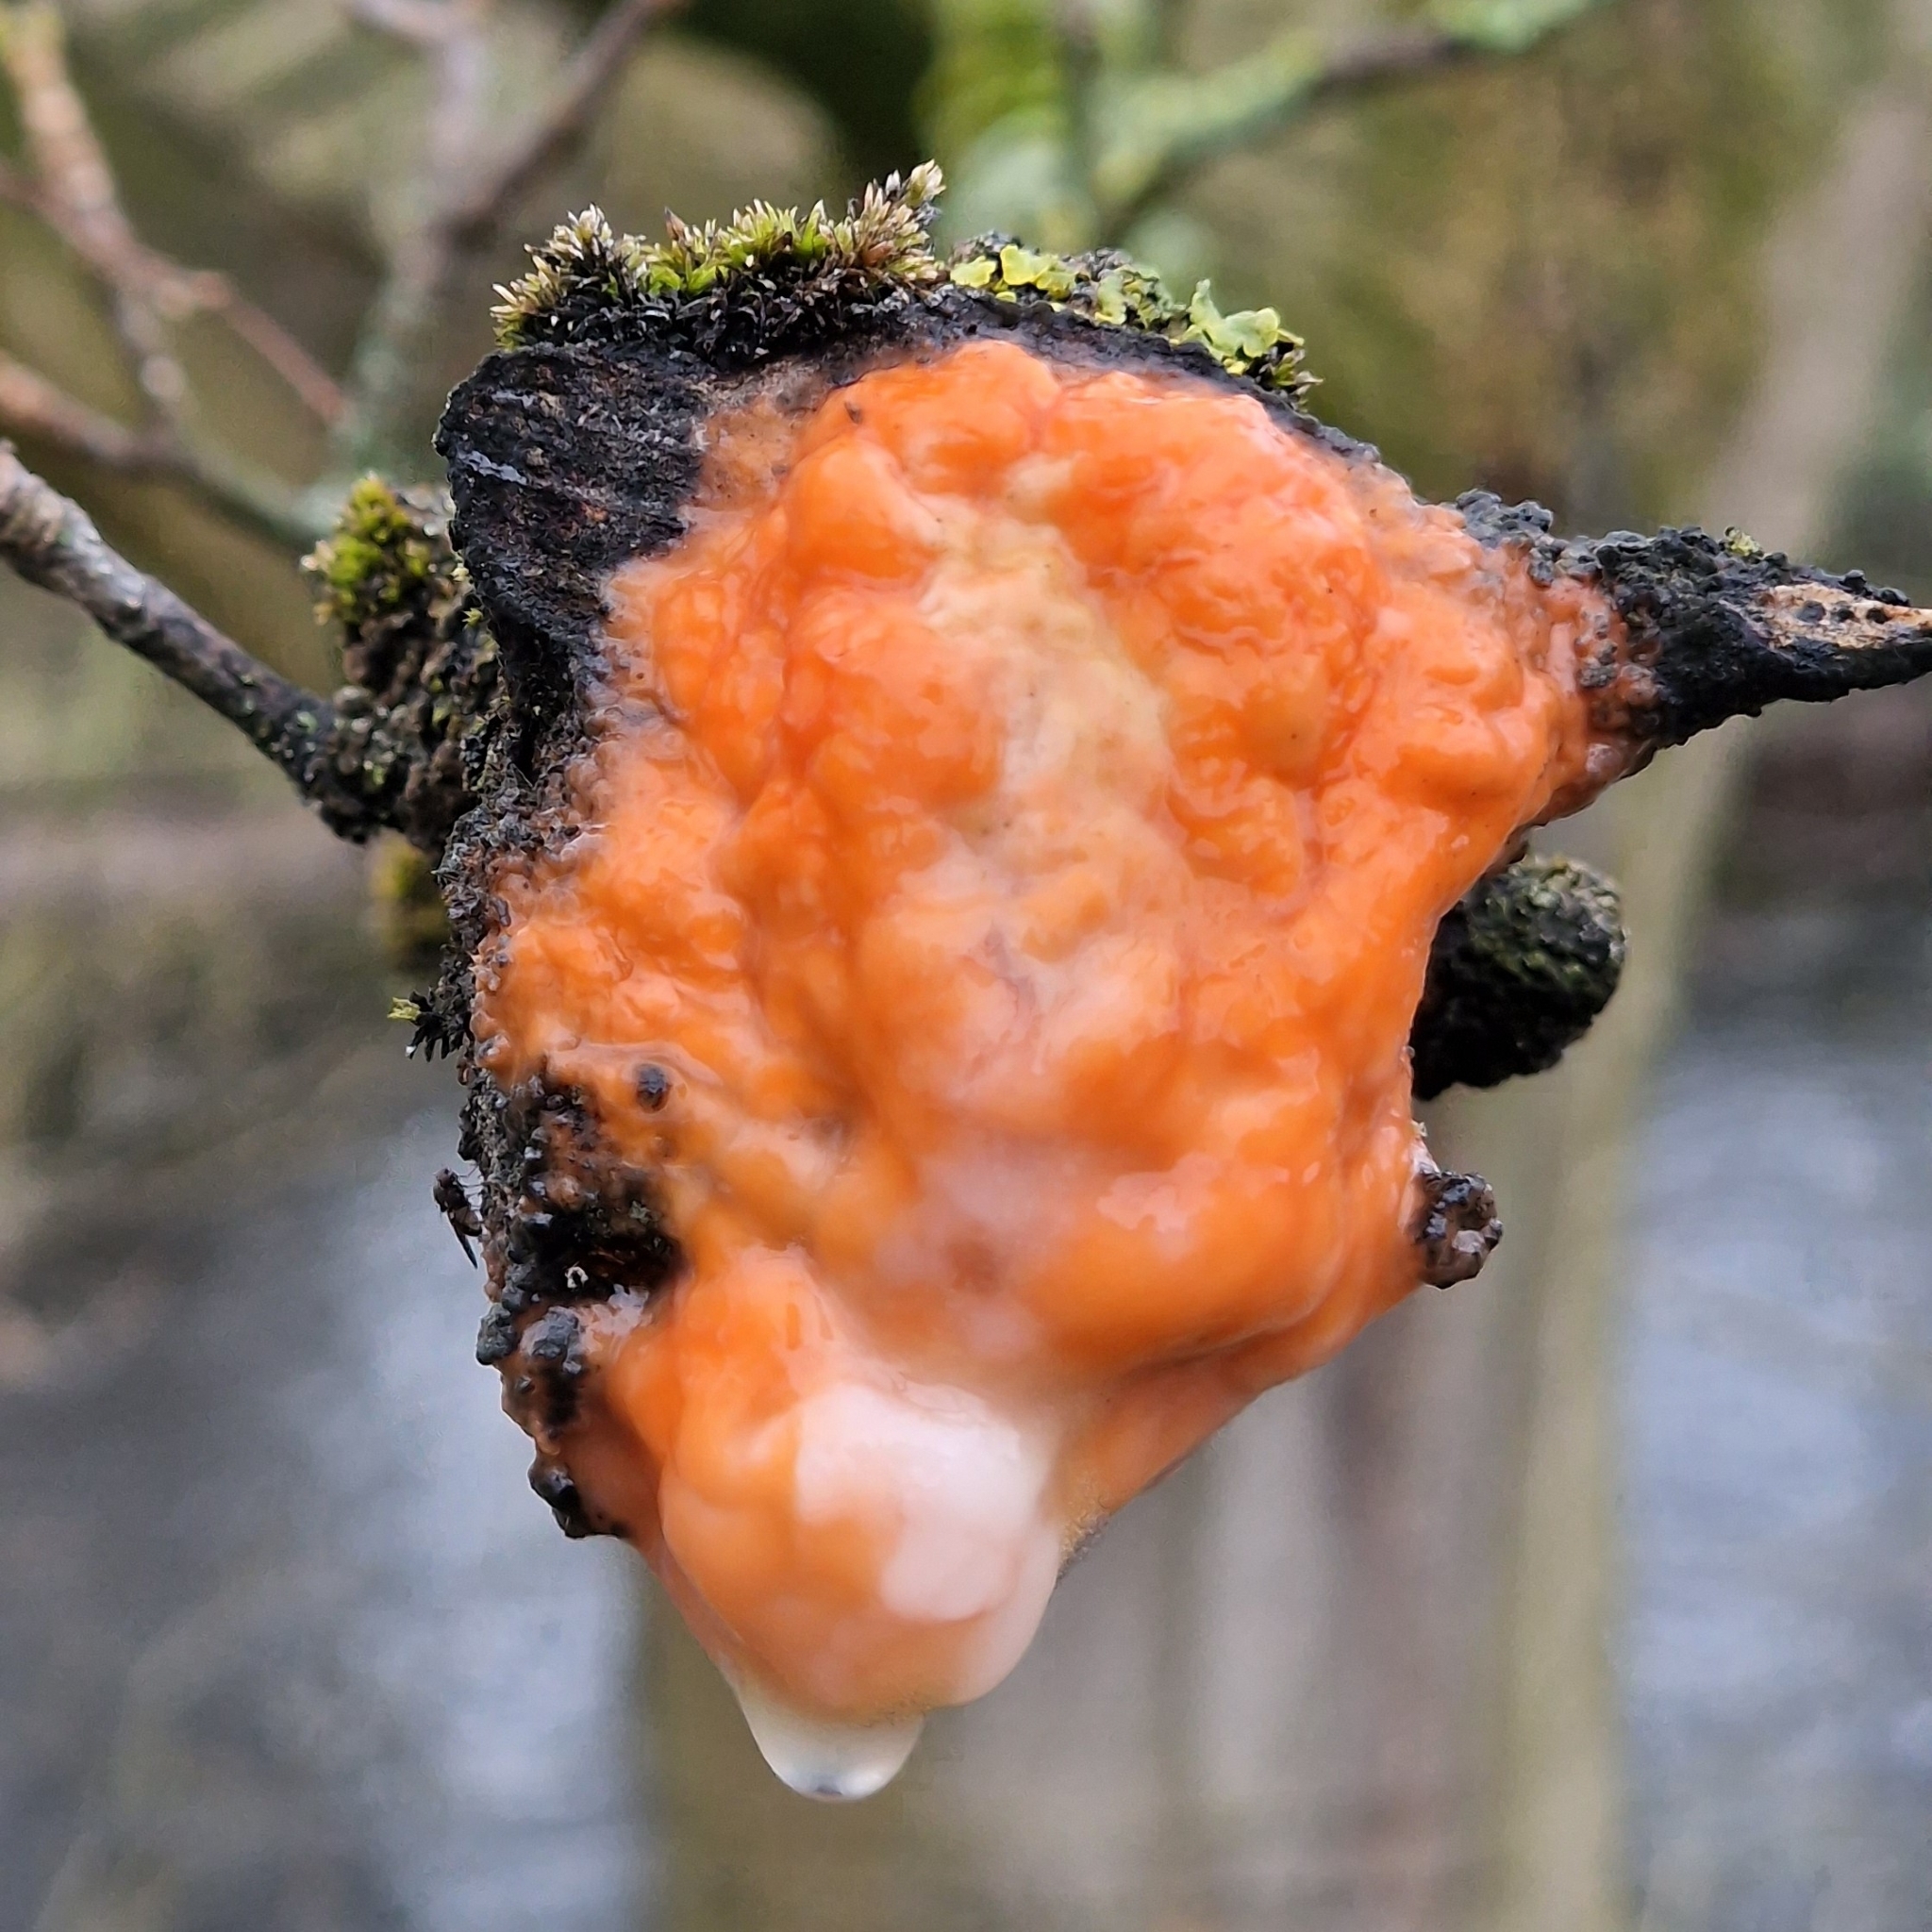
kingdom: Fungi
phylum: Ascomycota
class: Sordariomycetes
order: Hypocreales
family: Nectriaceae
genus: Fusicolla
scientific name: Fusicolla merismoides
